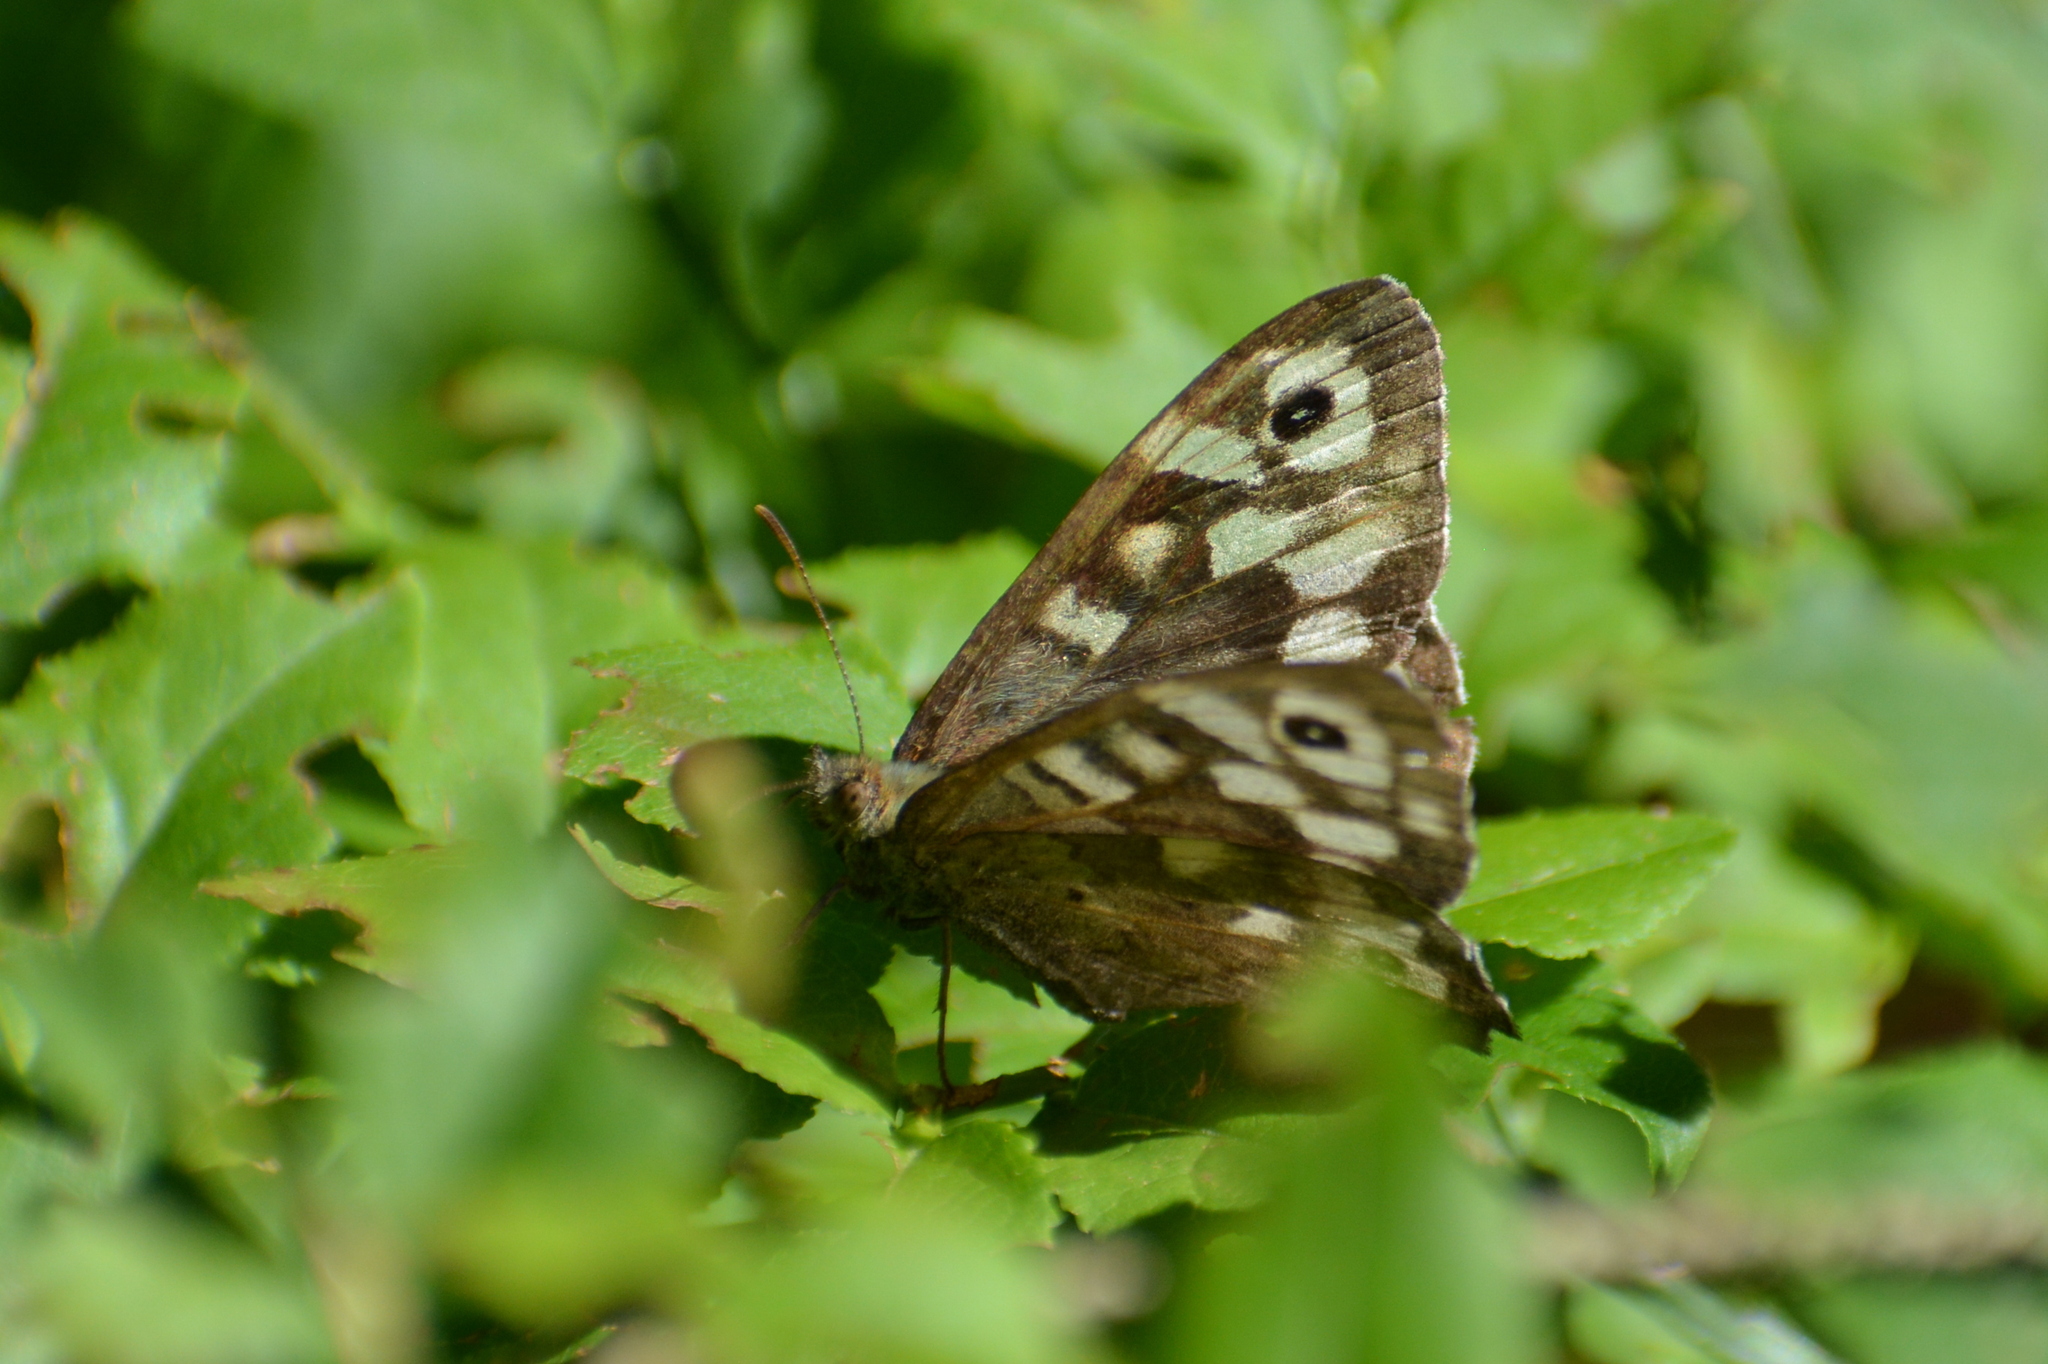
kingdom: Animalia
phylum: Arthropoda
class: Insecta
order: Lepidoptera
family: Nymphalidae
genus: Pararge
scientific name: Pararge aegeria
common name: Speckled wood
